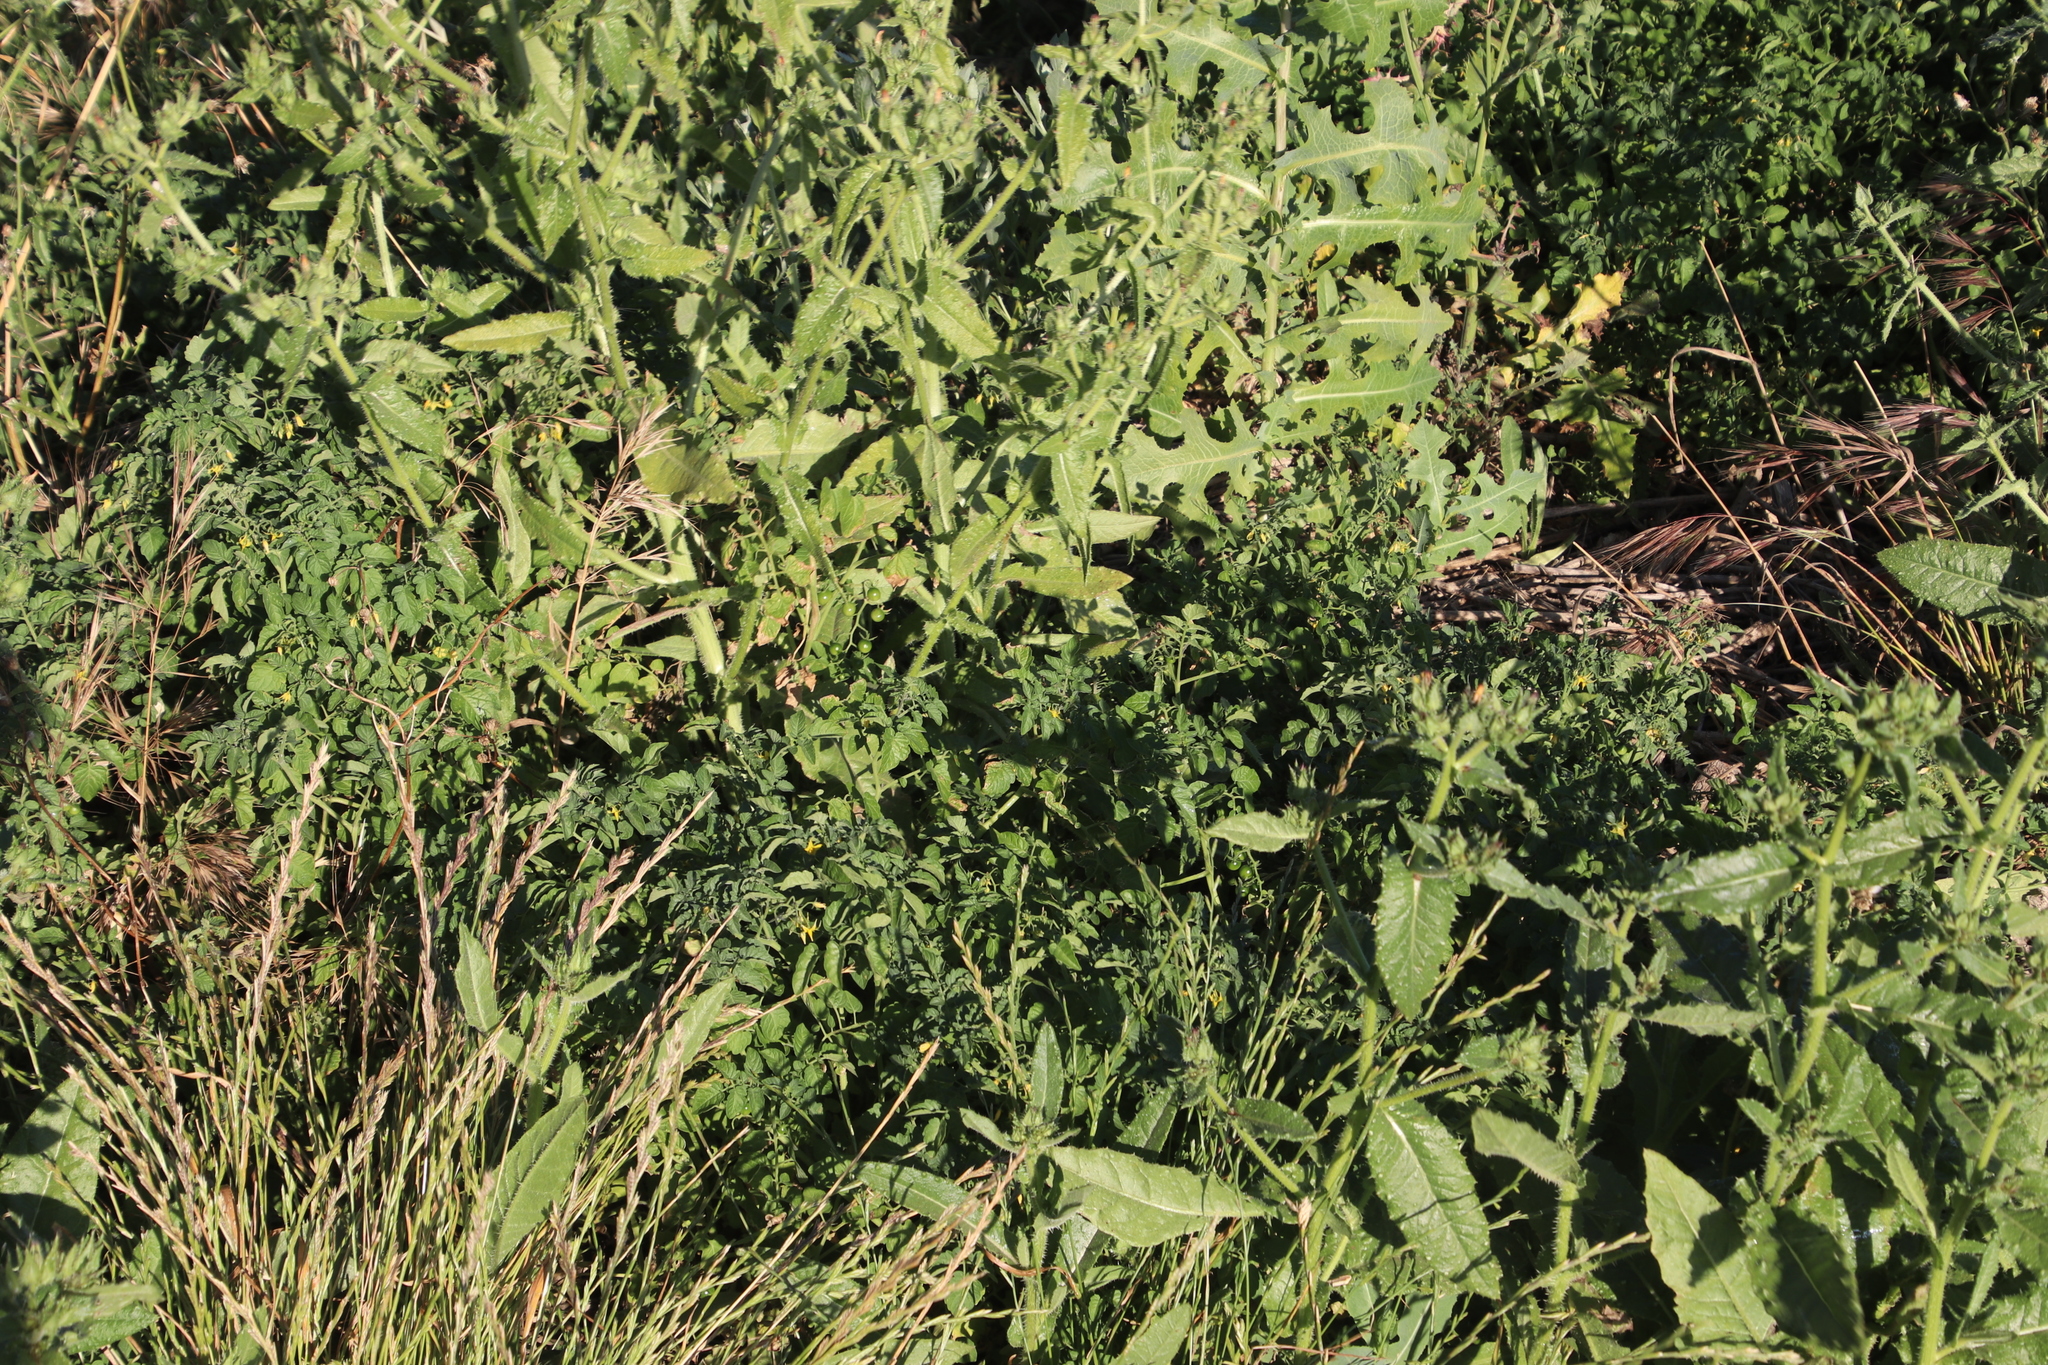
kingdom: Plantae
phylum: Tracheophyta
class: Magnoliopsida
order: Solanales
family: Solanaceae
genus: Solanum
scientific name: Solanum lycopersicum
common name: Garden tomato
